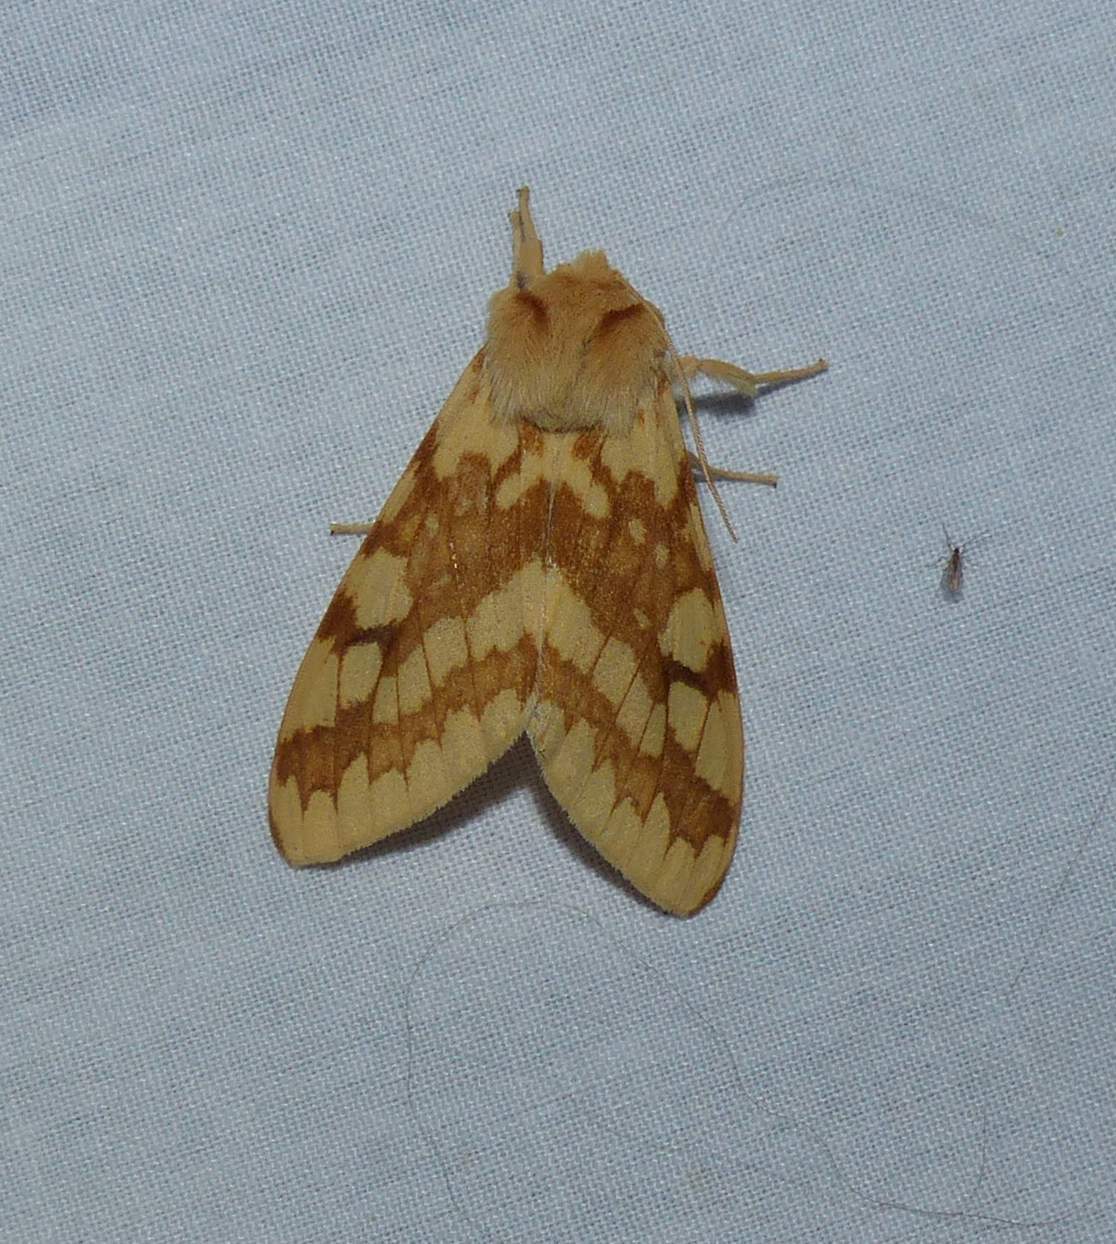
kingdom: Animalia
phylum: Arthropoda
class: Insecta
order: Lepidoptera
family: Erebidae
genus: Lophocampa
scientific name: Lophocampa maculata
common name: Spotted tussock moth
